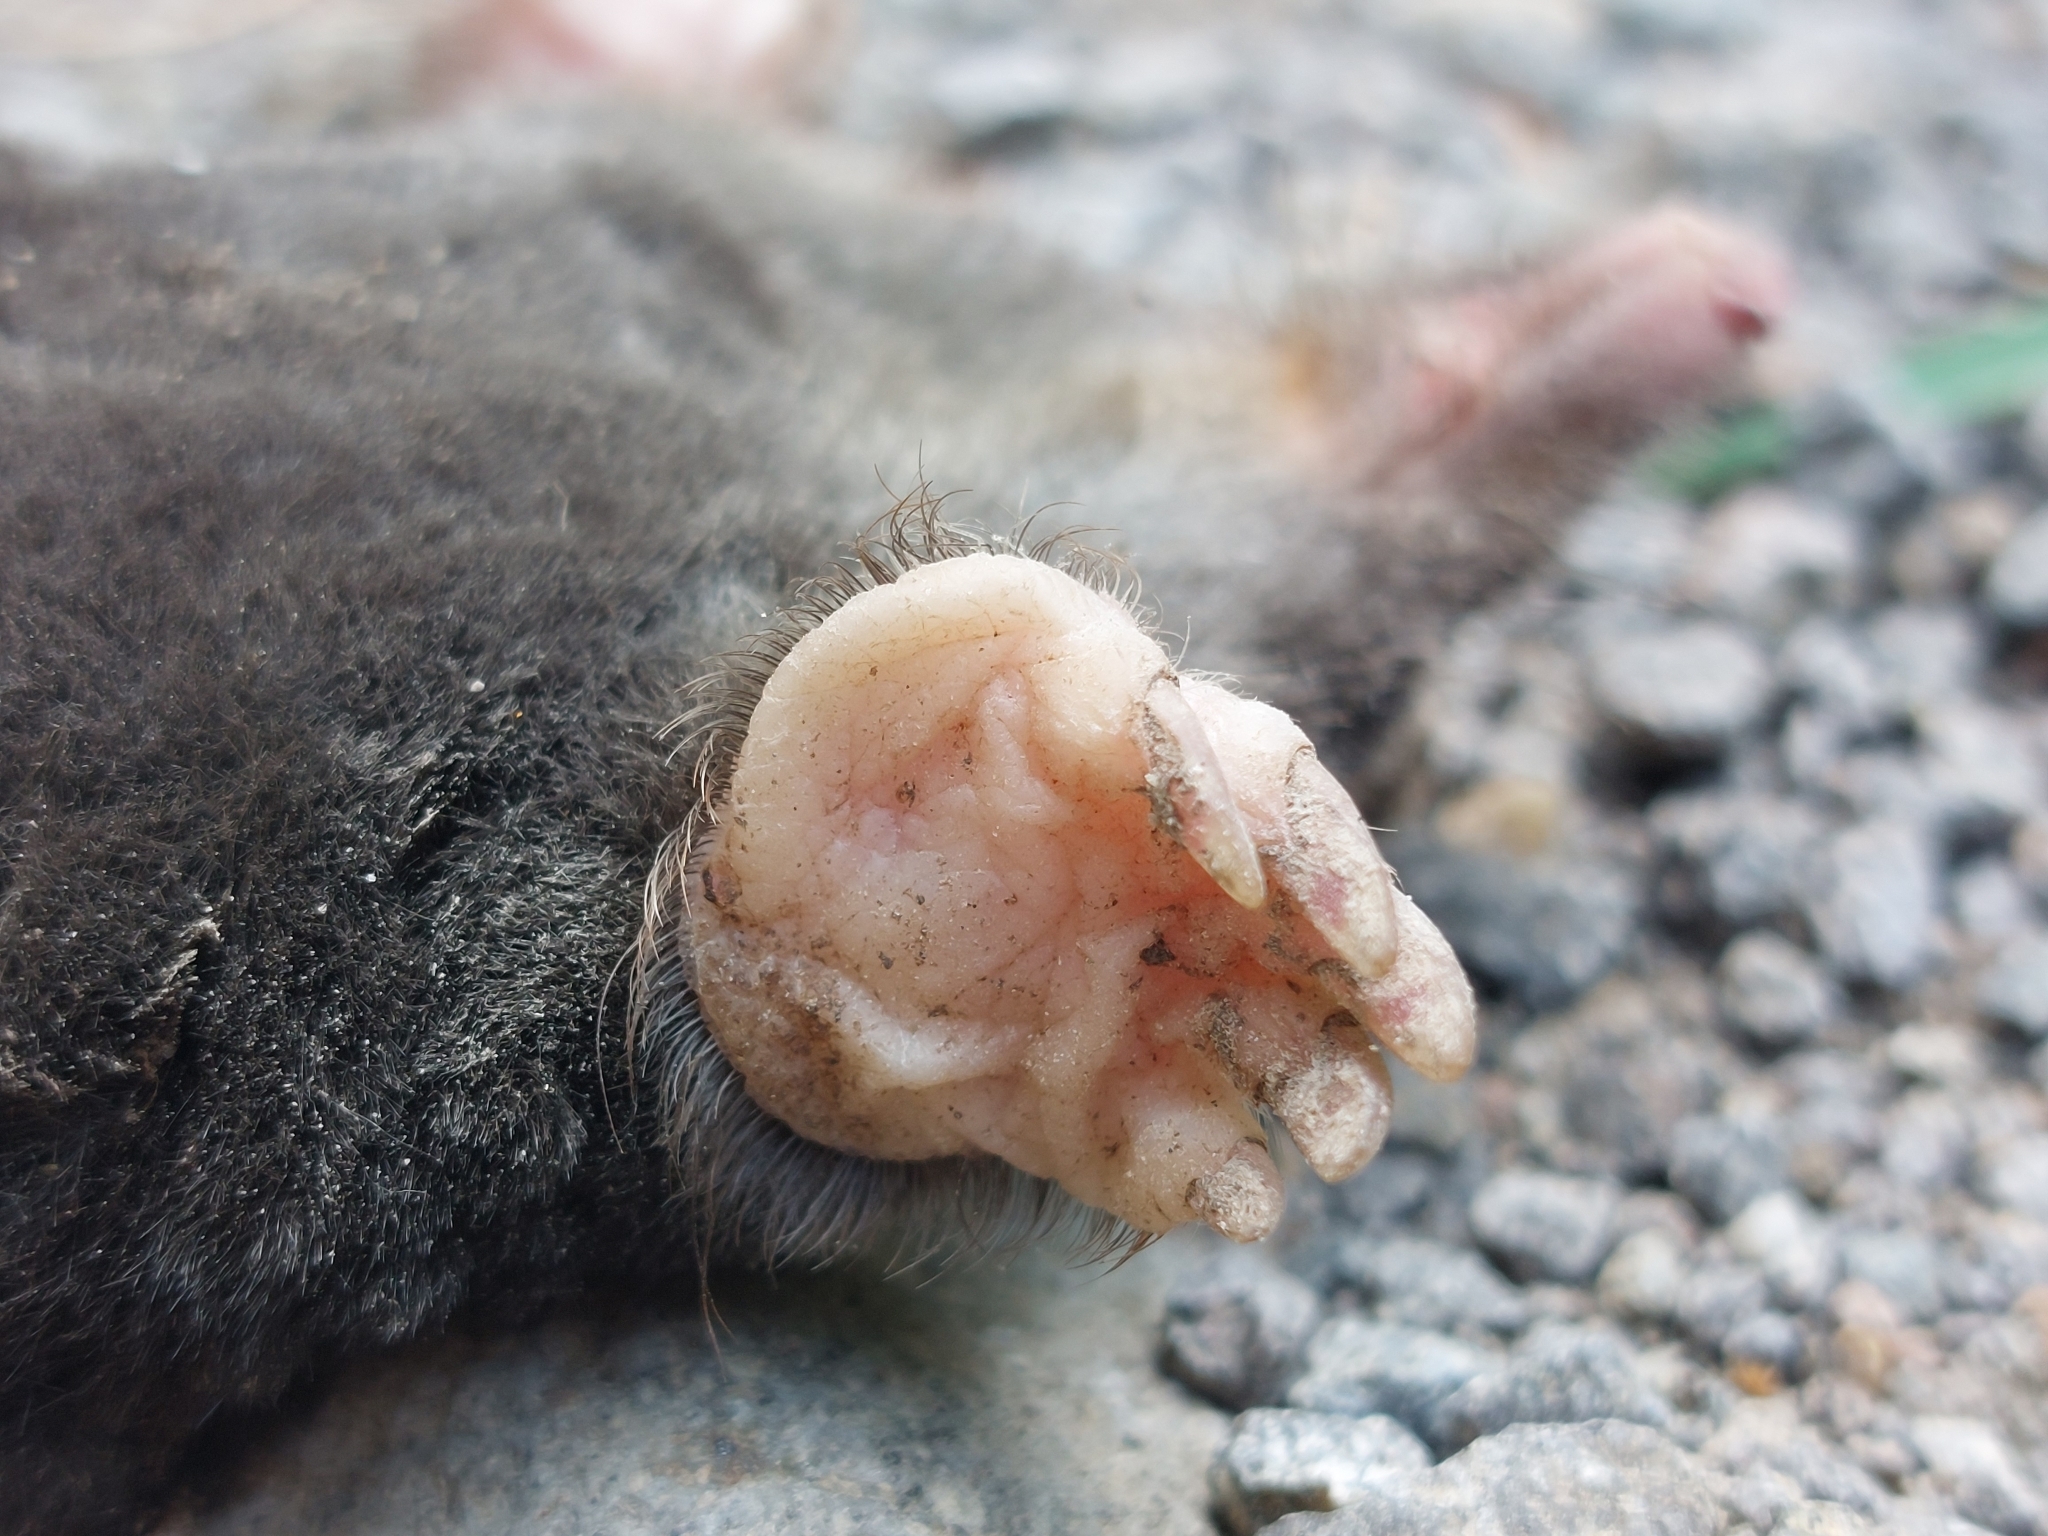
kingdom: Animalia
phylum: Chordata
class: Mammalia
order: Soricomorpha
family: Talpidae
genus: Talpa
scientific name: Talpa europaea
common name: European mole
